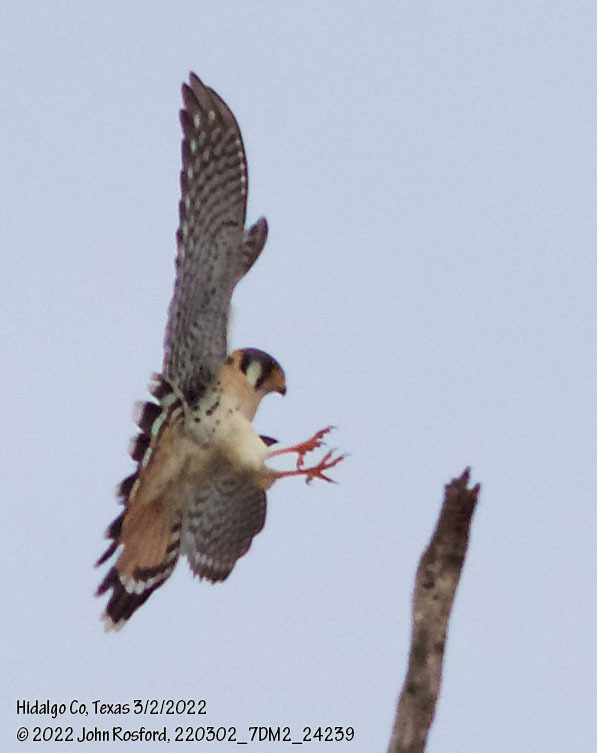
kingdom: Animalia
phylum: Chordata
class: Aves
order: Falconiformes
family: Falconidae
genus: Falco
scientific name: Falco sparverius
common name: American kestrel
